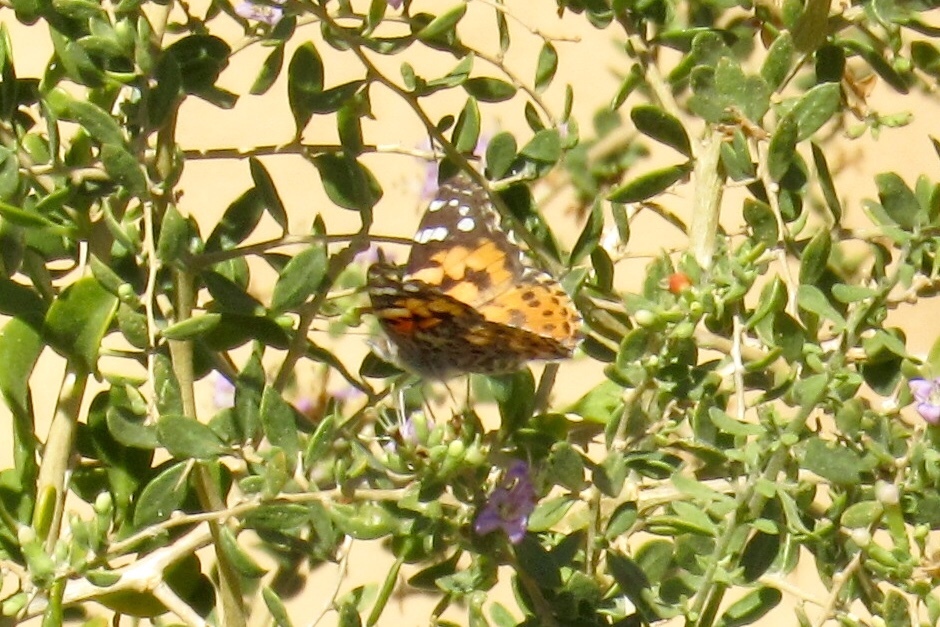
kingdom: Animalia
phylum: Arthropoda
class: Insecta
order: Lepidoptera
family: Nymphalidae
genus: Vanessa
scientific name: Vanessa cardui
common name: Painted lady
